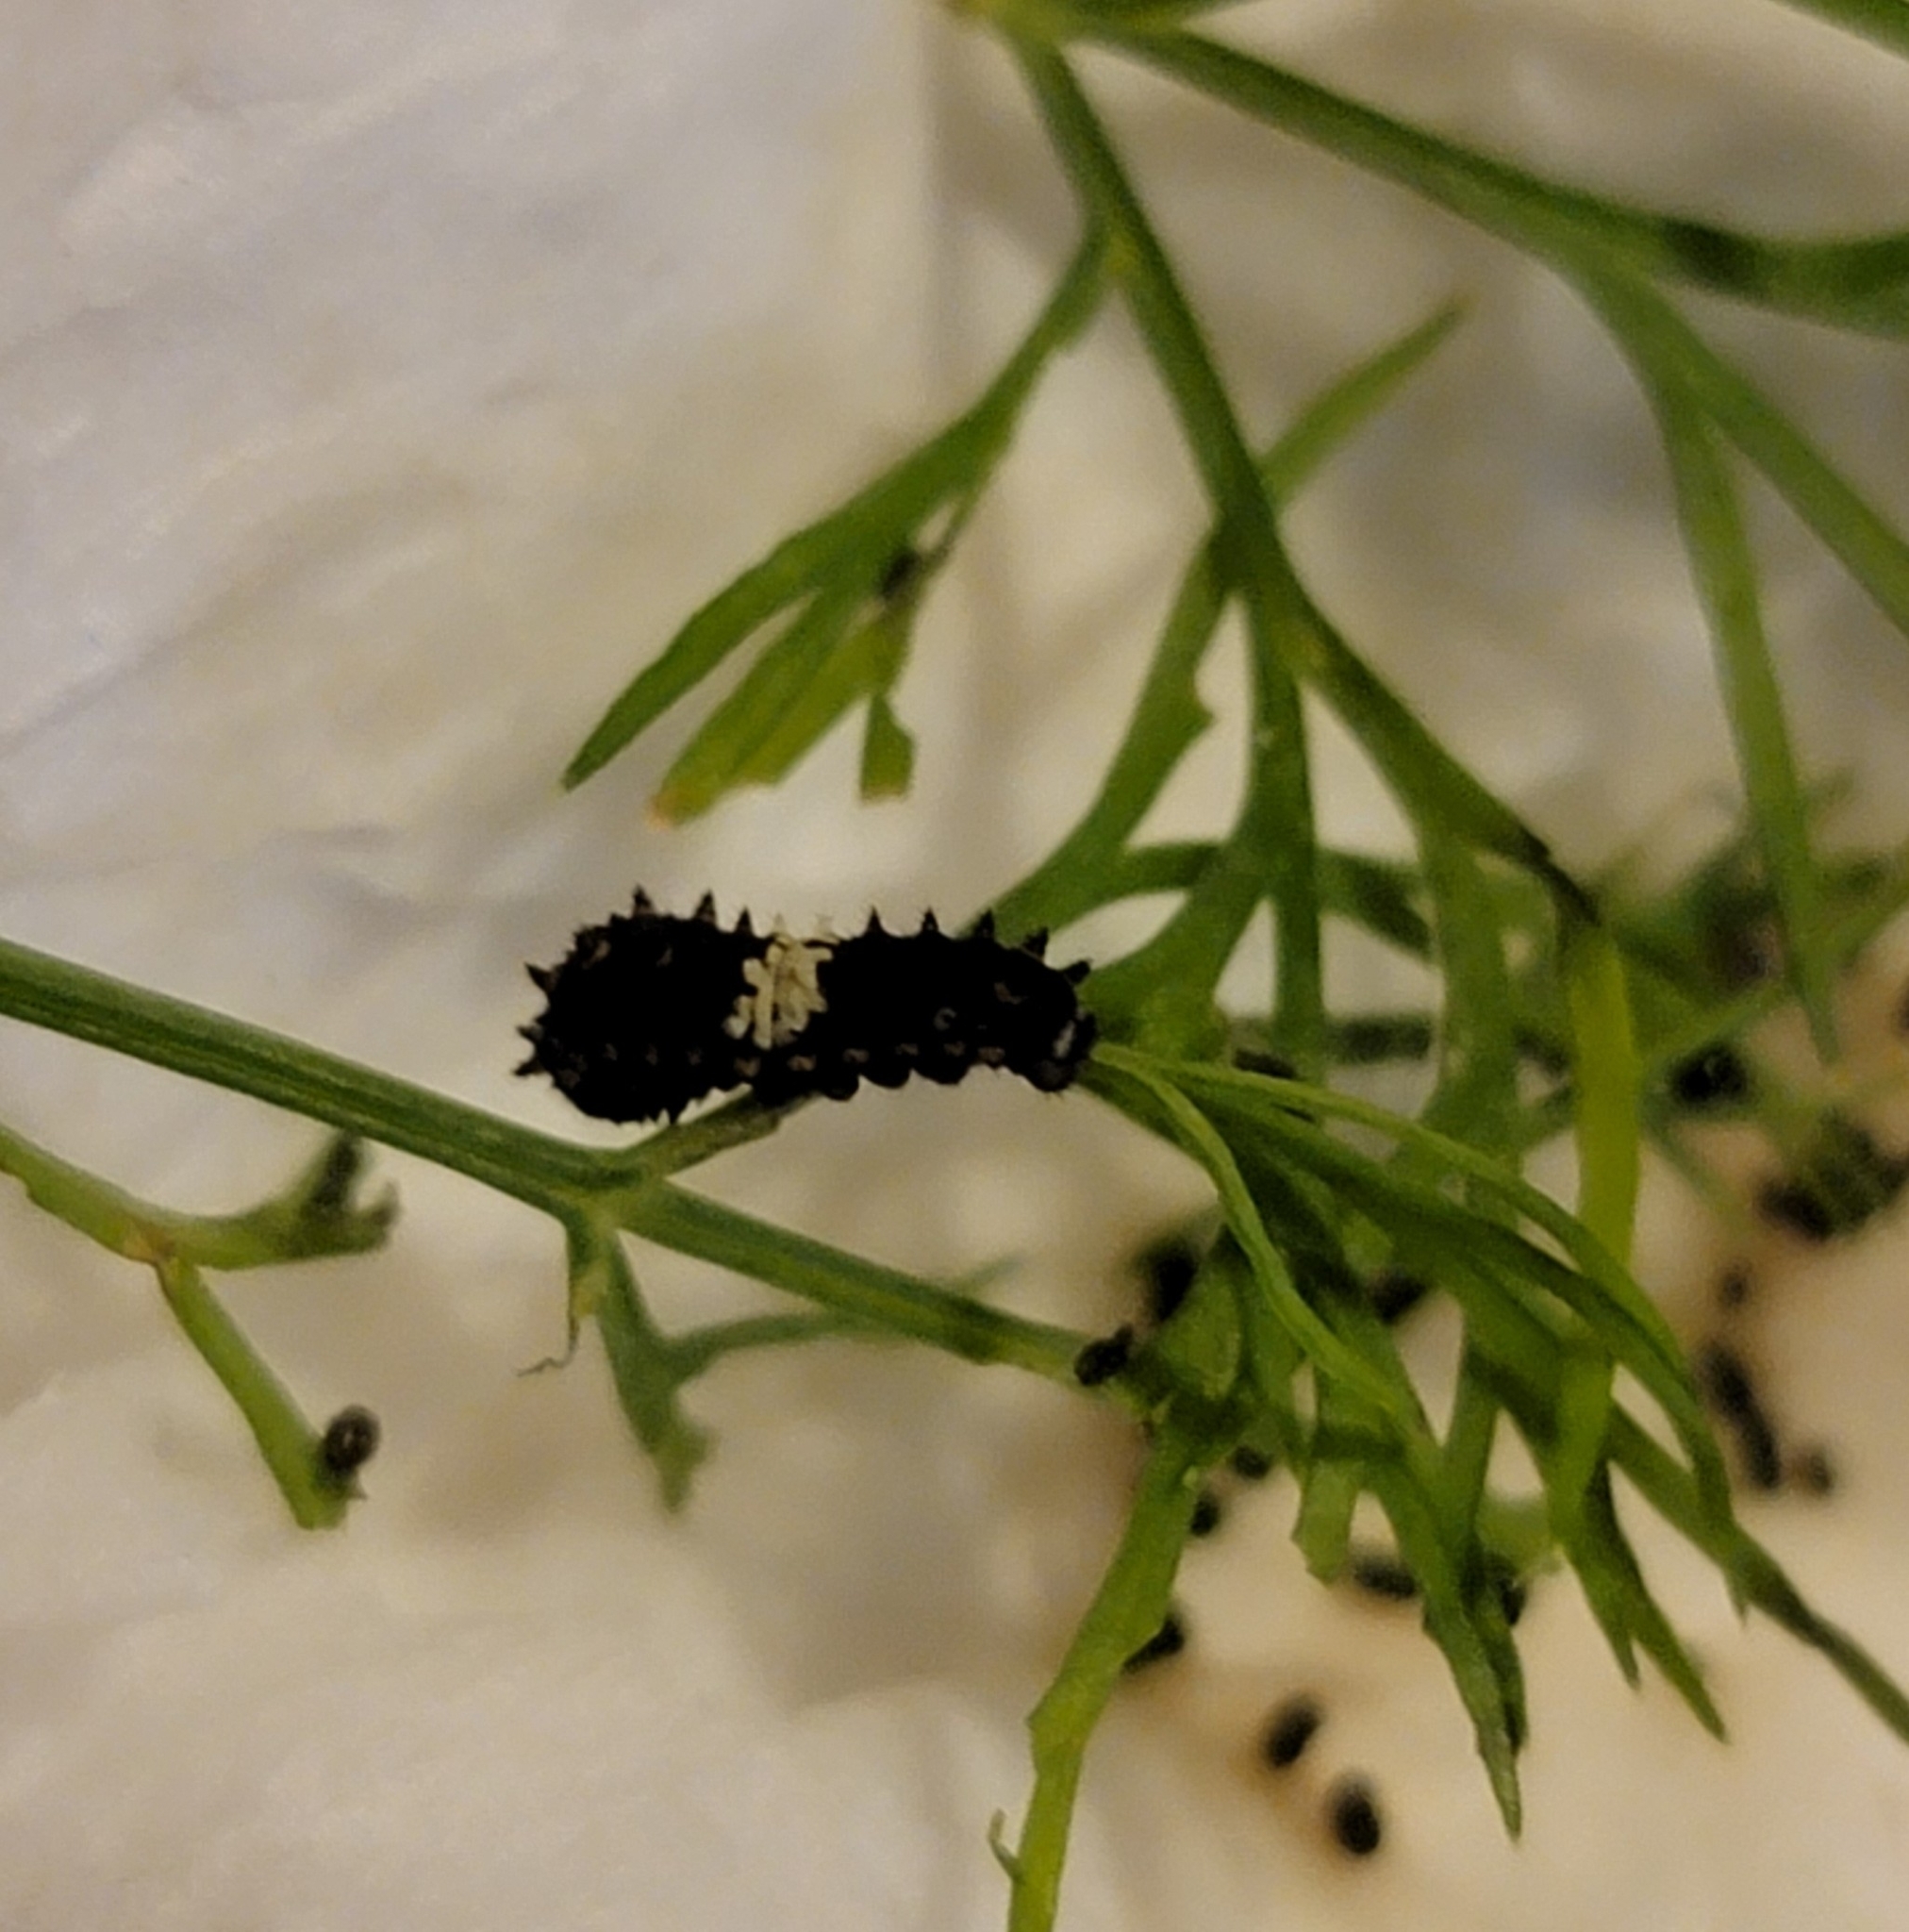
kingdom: Animalia
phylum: Arthropoda
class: Insecta
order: Lepidoptera
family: Papilionidae
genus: Papilio
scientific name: Papilio polyxenes
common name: Black swallowtail
